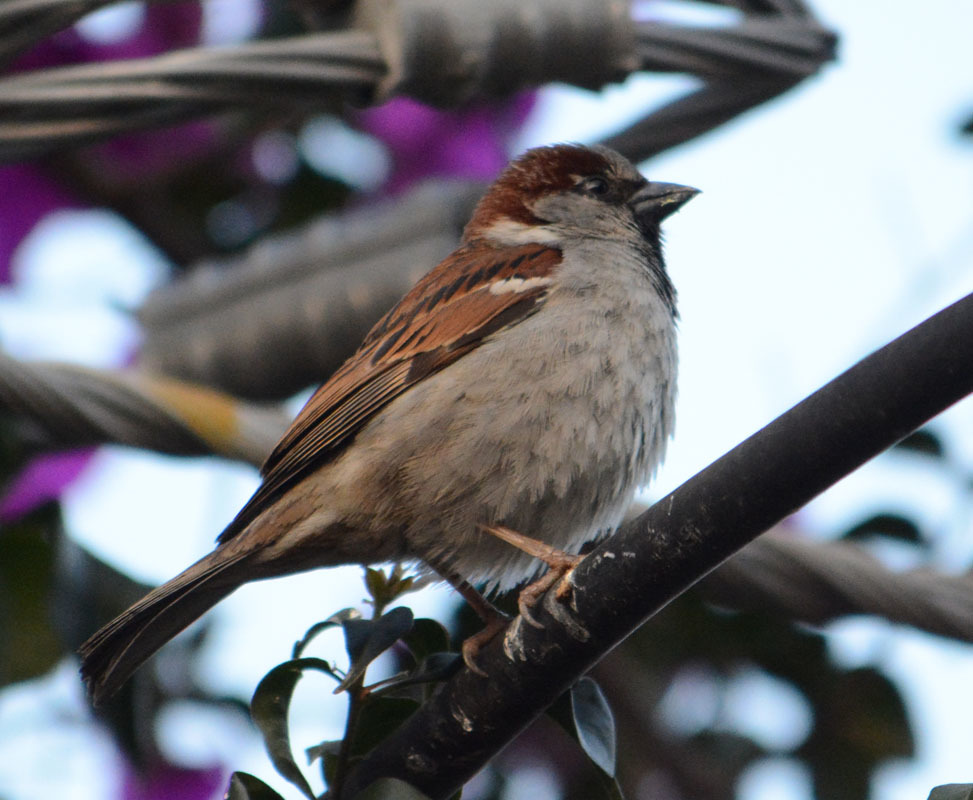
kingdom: Animalia
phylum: Chordata
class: Aves
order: Passeriformes
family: Passeridae
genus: Passer
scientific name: Passer domesticus
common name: House sparrow
